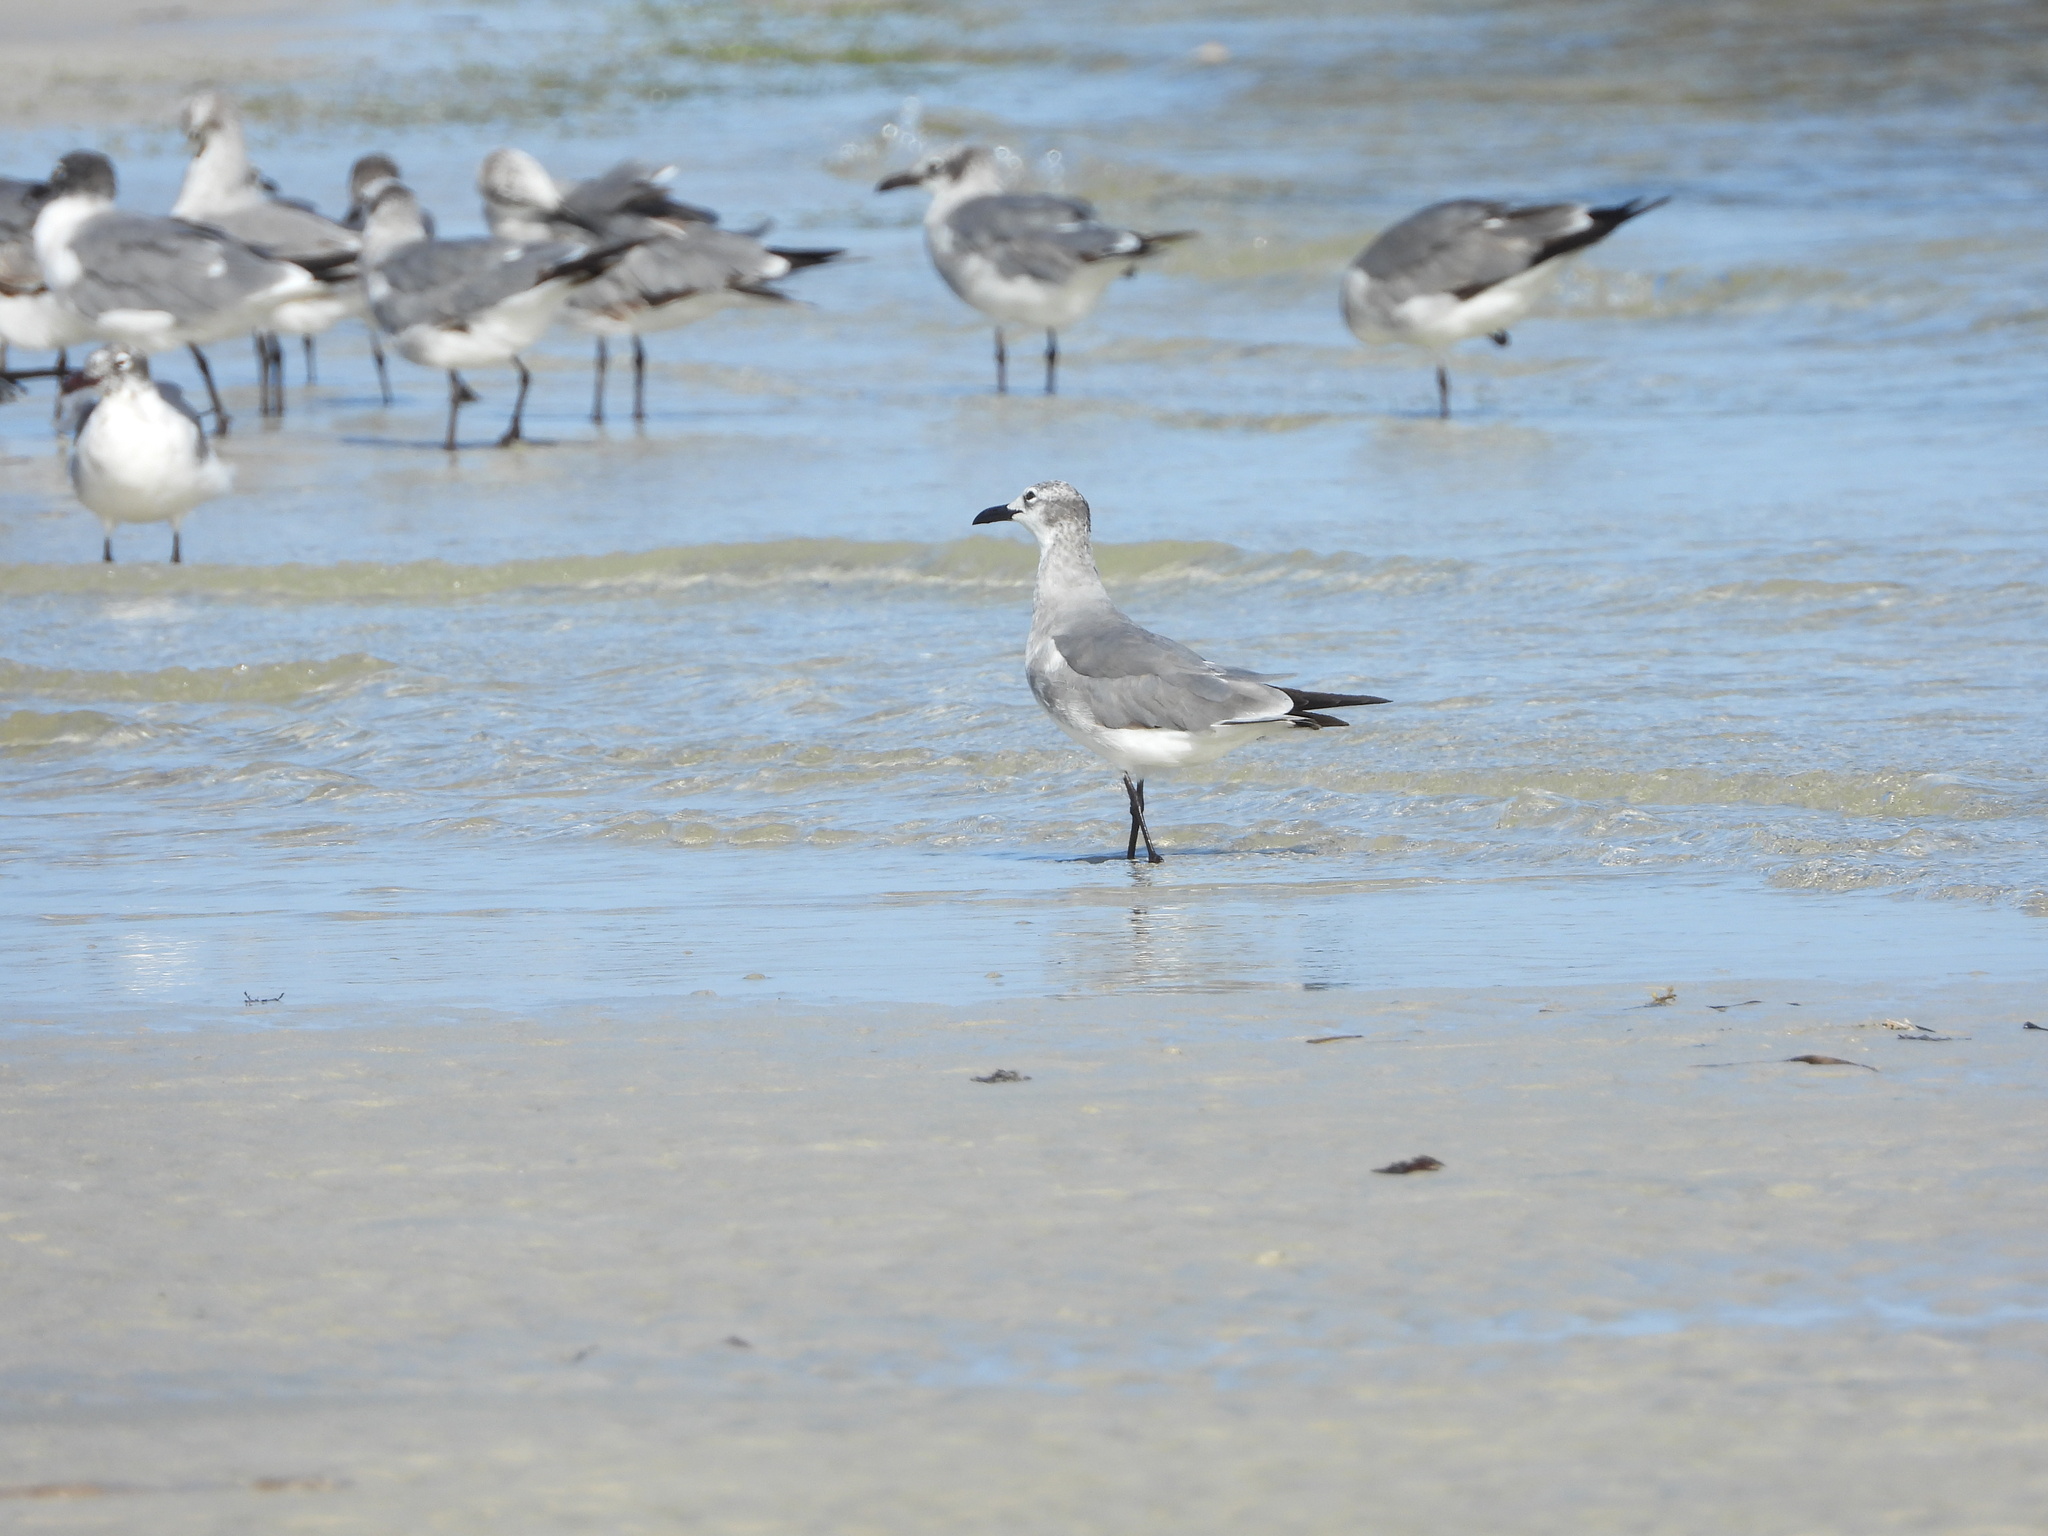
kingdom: Animalia
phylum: Chordata
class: Aves
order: Charadriiformes
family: Laridae
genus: Leucophaeus
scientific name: Leucophaeus atricilla
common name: Laughing gull
